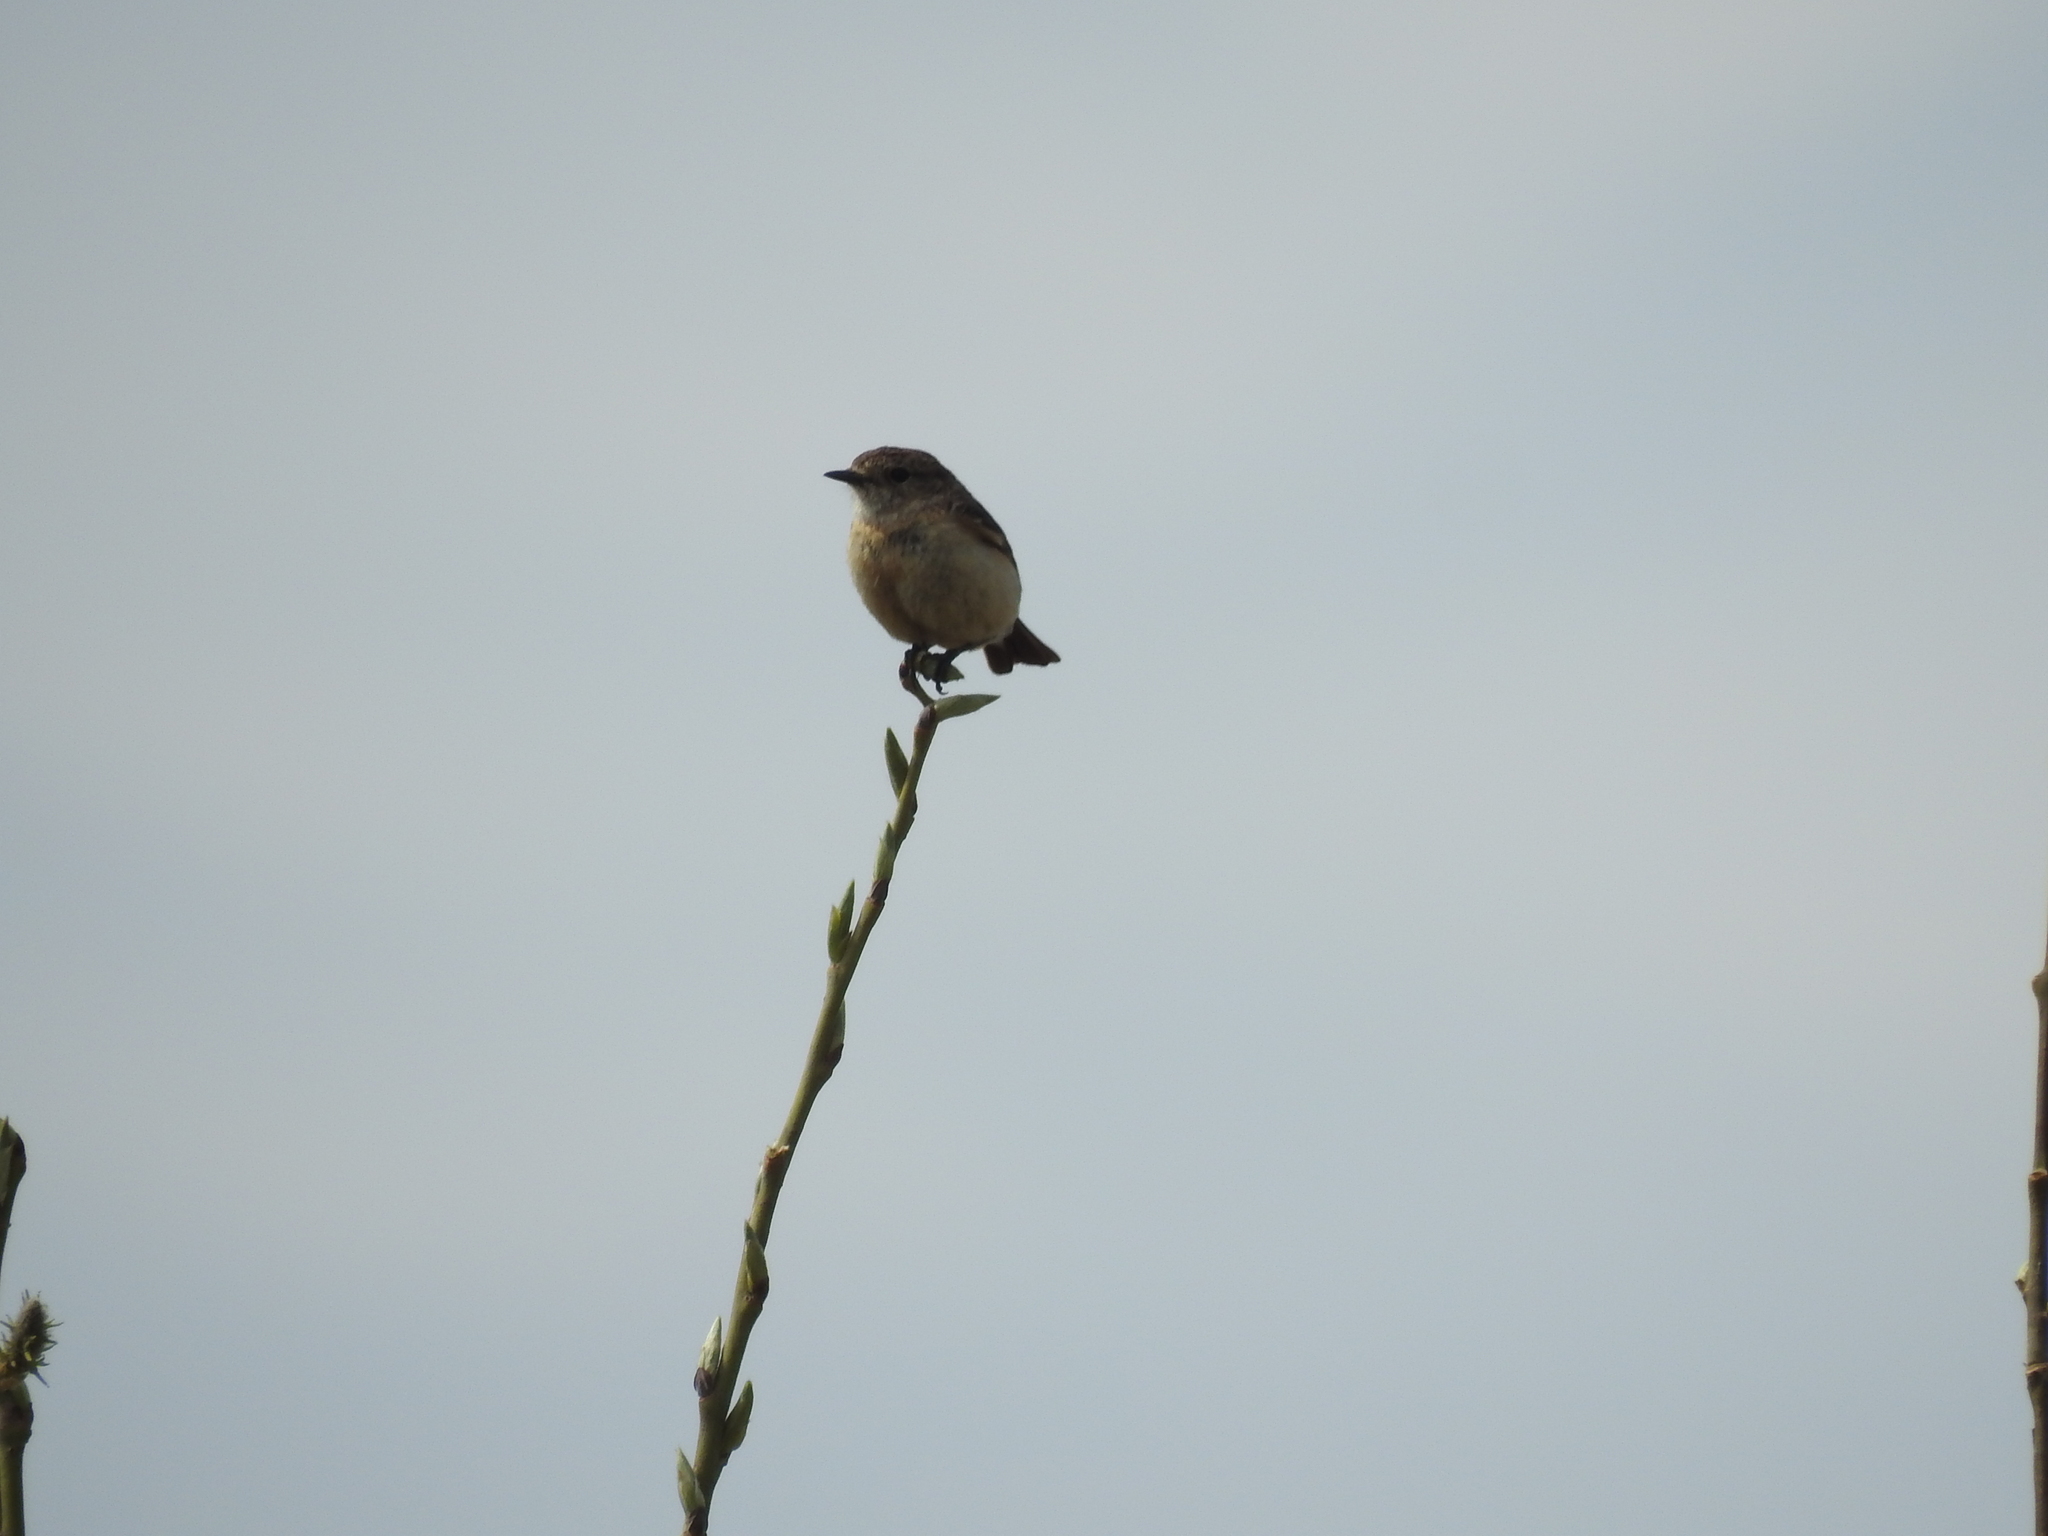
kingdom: Animalia
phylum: Chordata
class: Aves
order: Passeriformes
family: Muscicapidae
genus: Saxicola
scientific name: Saxicola maurus
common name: Siberian stonechat
